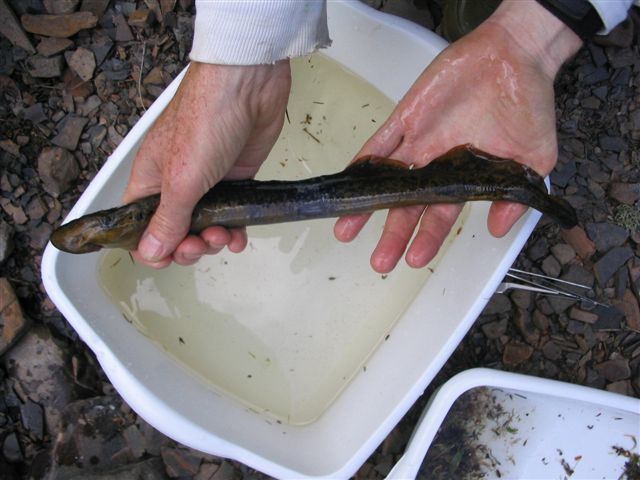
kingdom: Animalia
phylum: Chordata
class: Petromyzonti
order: Petromyzontiformes
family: Petromyzontidae
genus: Petromyzon
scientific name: Petromyzon marinus
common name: Sea lamprey
